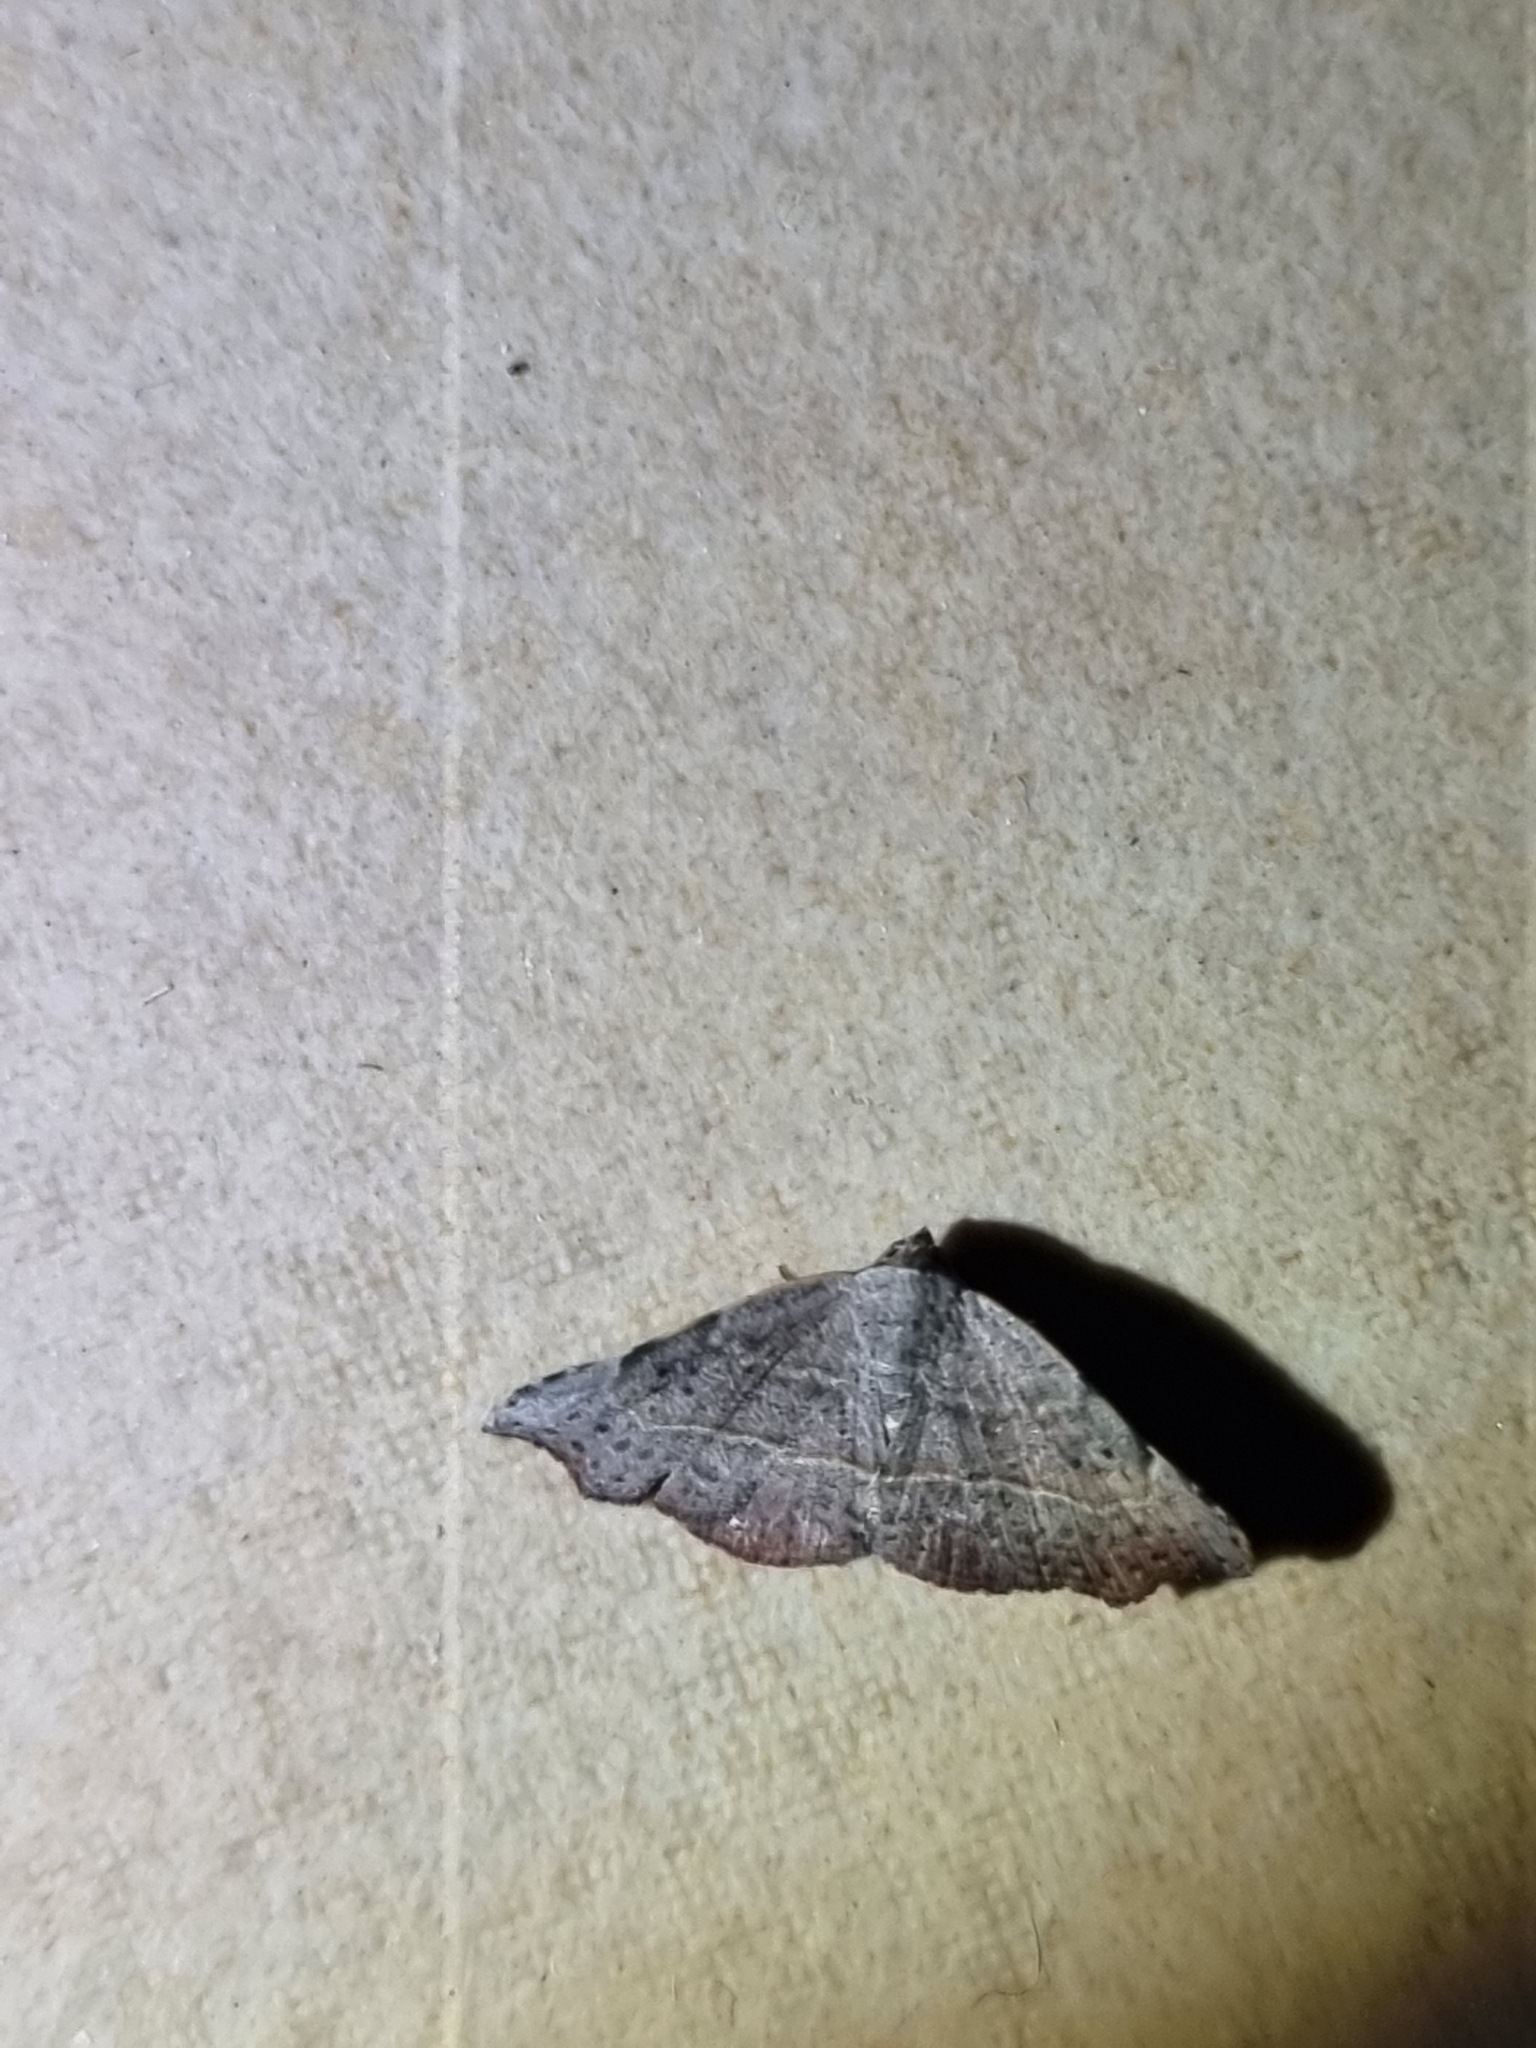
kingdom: Animalia
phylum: Arthropoda
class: Insecta
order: Lepidoptera
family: Erebidae
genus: Laspeyria
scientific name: Laspeyria concavata
